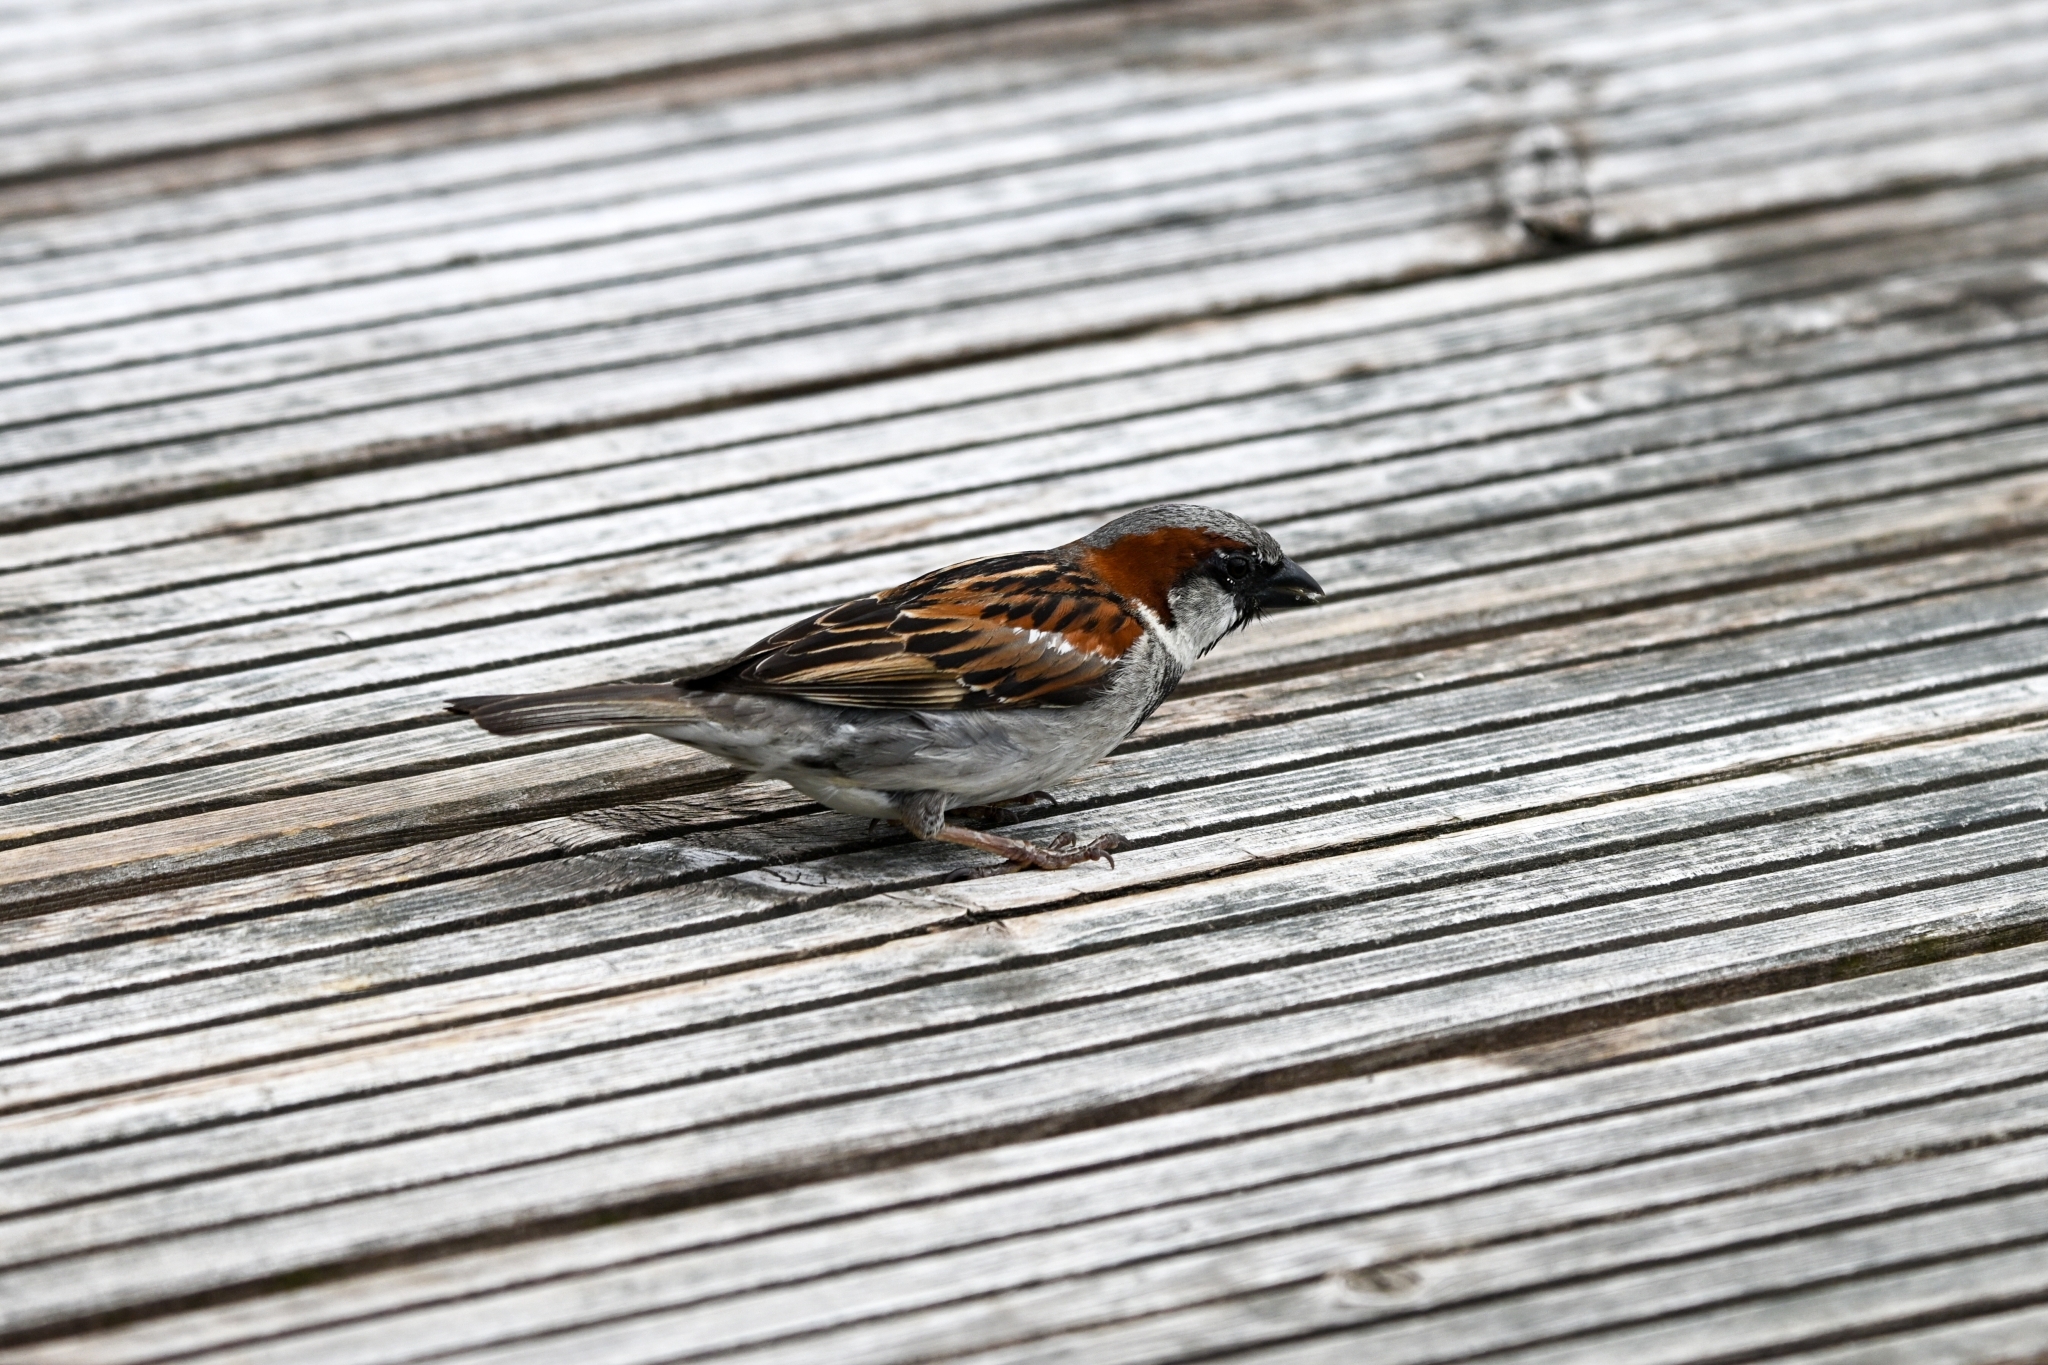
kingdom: Animalia
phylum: Chordata
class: Aves
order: Passeriformes
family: Passeridae
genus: Passer
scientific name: Passer domesticus
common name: House sparrow
